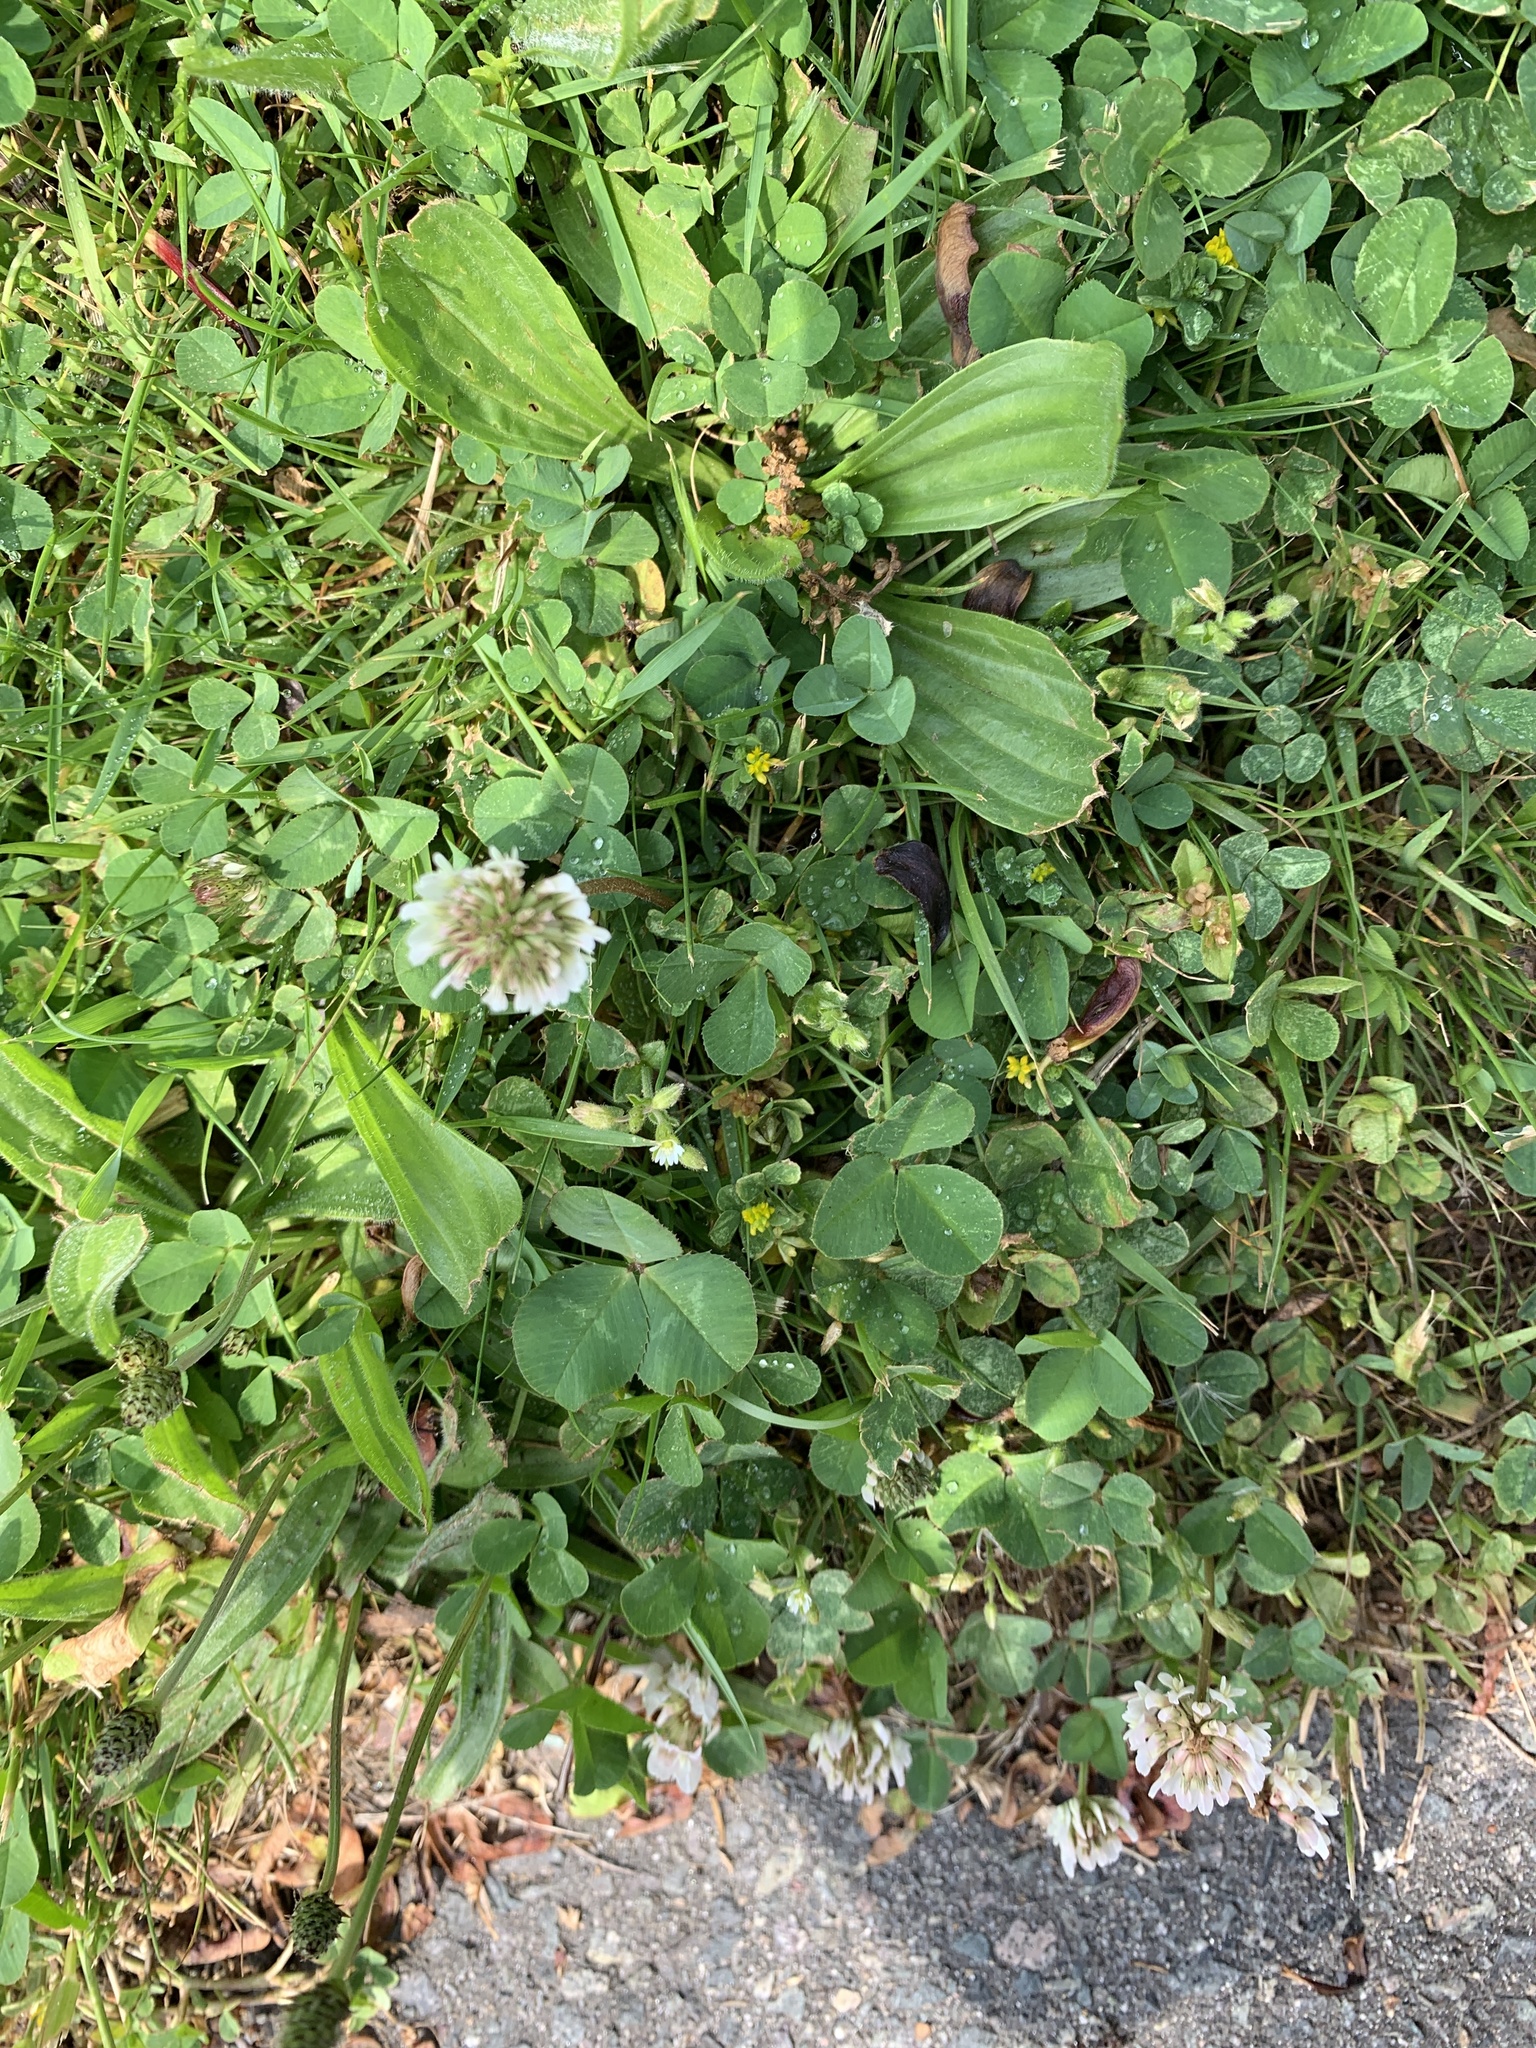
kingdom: Plantae
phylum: Tracheophyta
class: Magnoliopsida
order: Fabales
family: Fabaceae
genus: Trifolium
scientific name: Trifolium repens
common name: White clover
